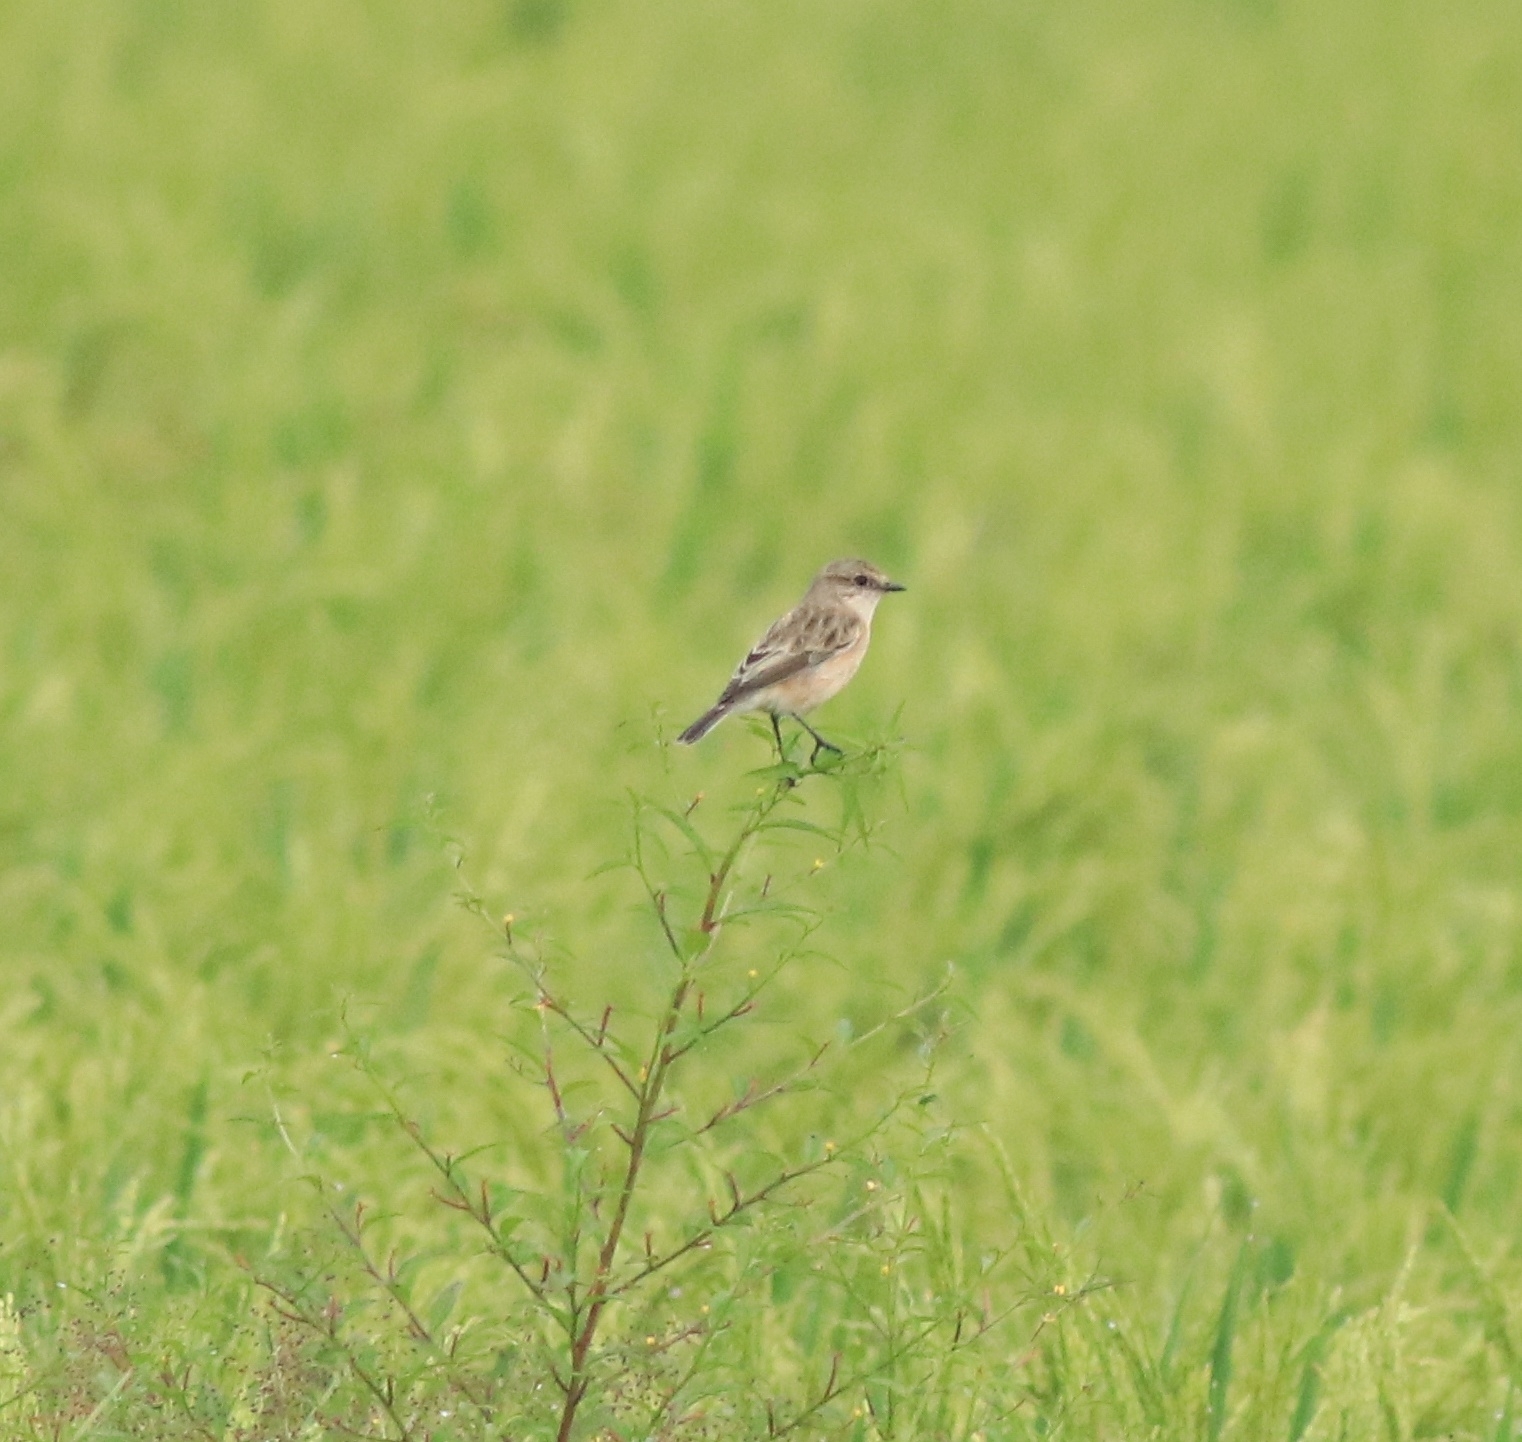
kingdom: Animalia
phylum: Chordata
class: Aves
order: Passeriformes
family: Muscicapidae
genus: Saxicola
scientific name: Saxicola maurus
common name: Siberian stonechat
